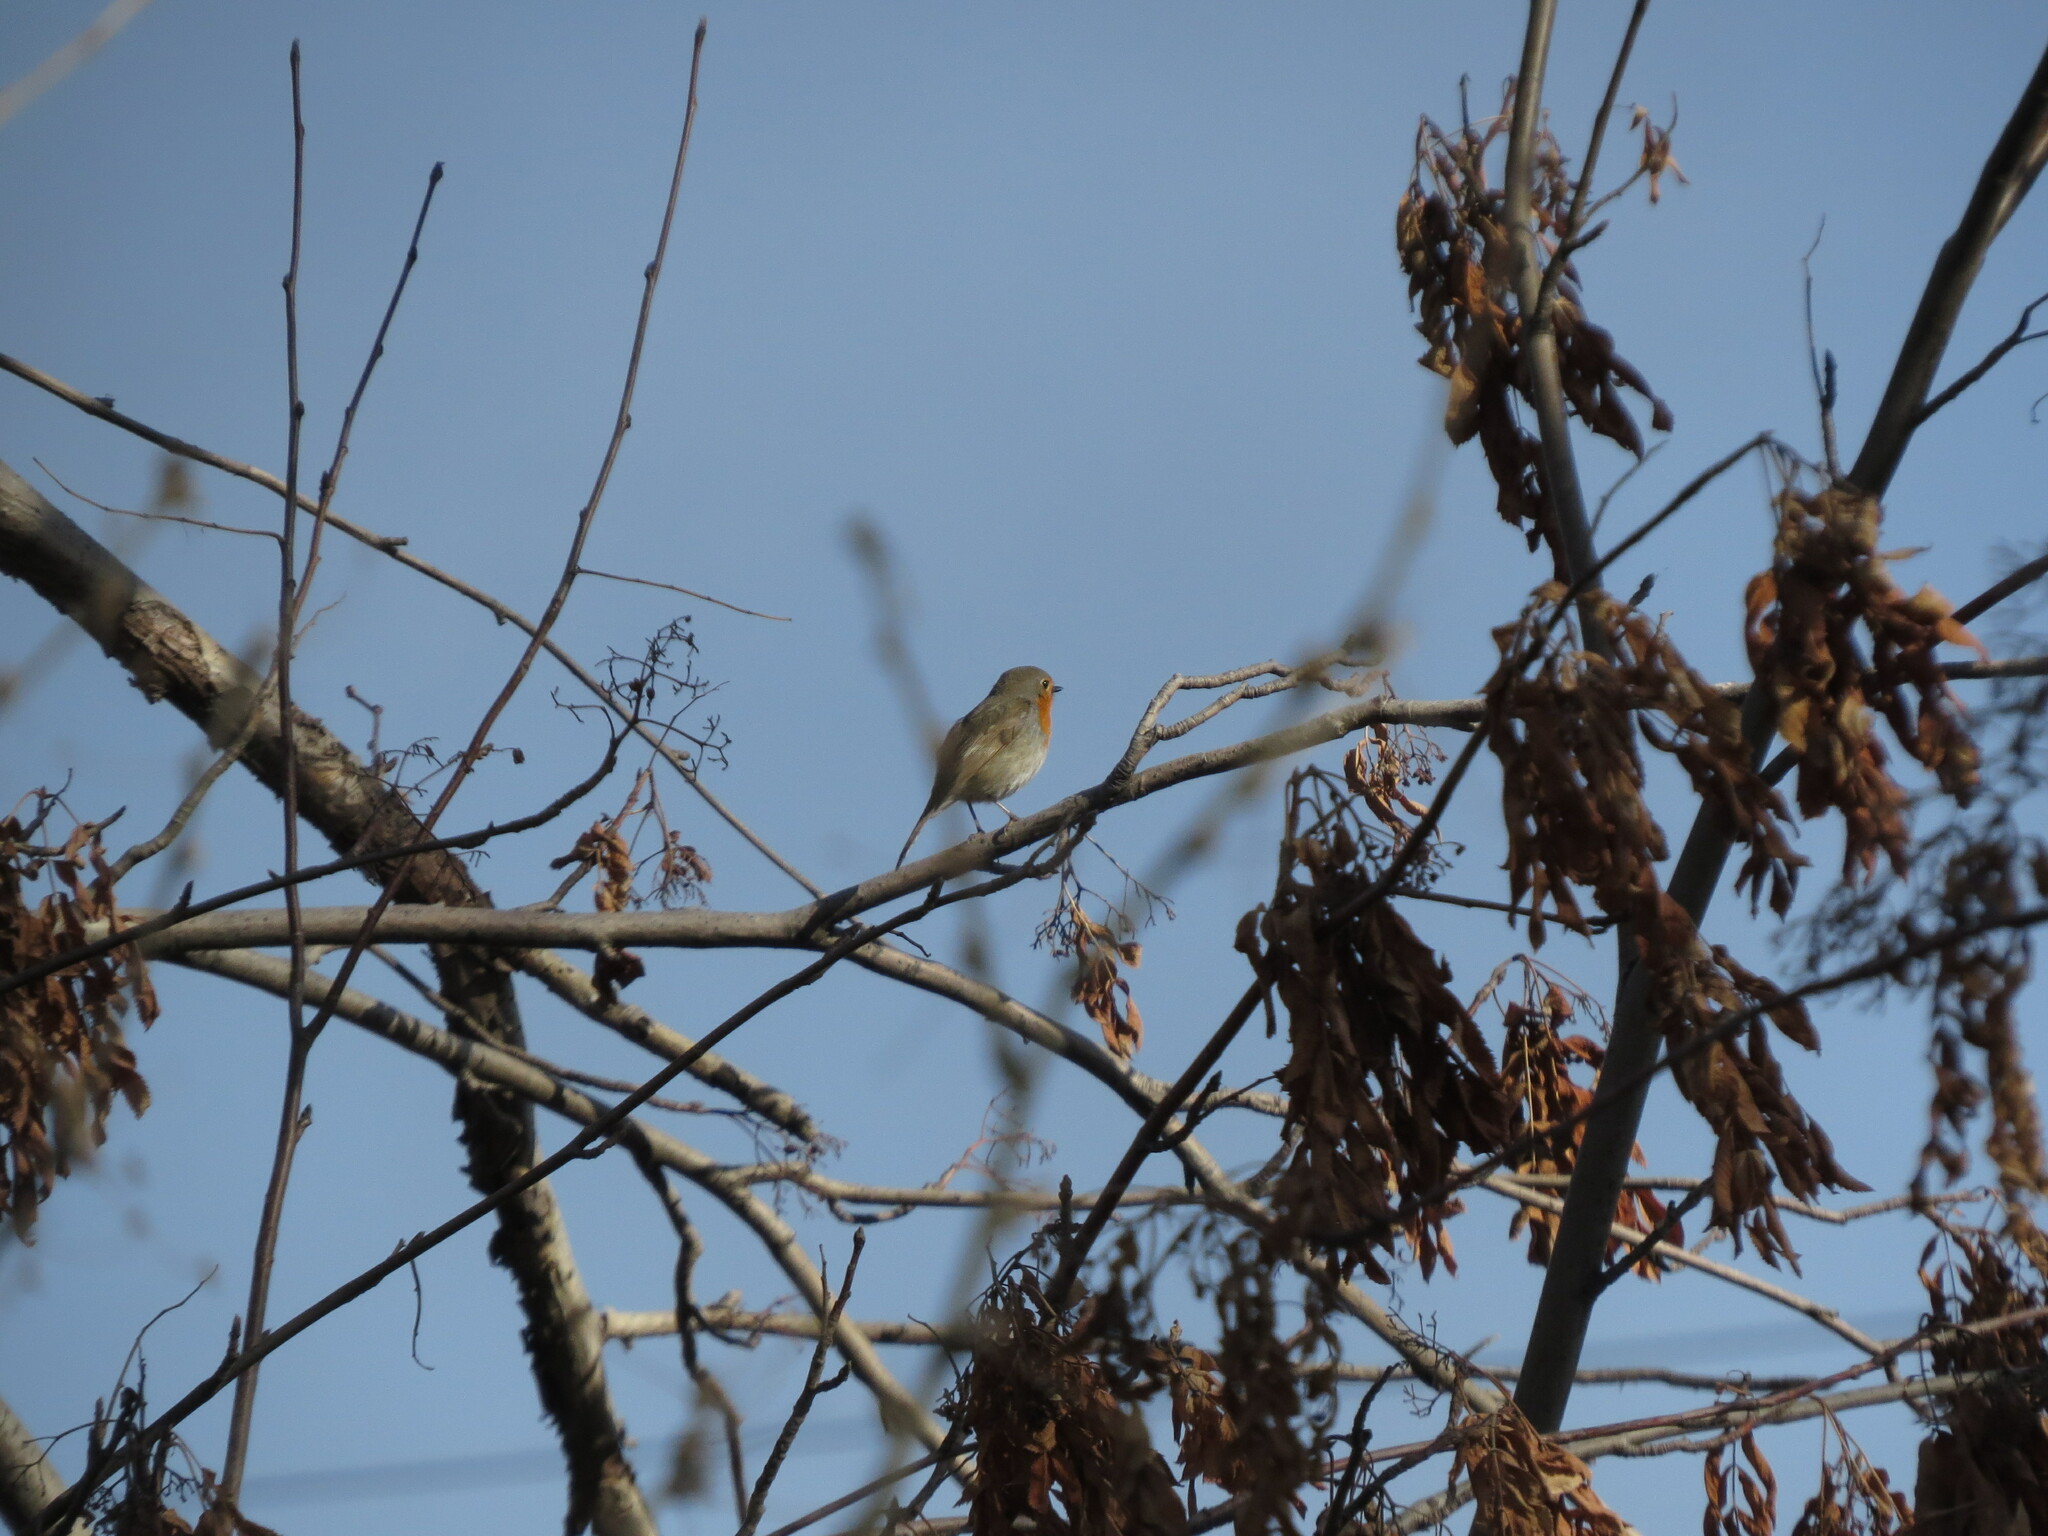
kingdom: Animalia
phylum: Chordata
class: Aves
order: Passeriformes
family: Muscicapidae
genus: Erithacus
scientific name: Erithacus rubecula
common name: European robin
